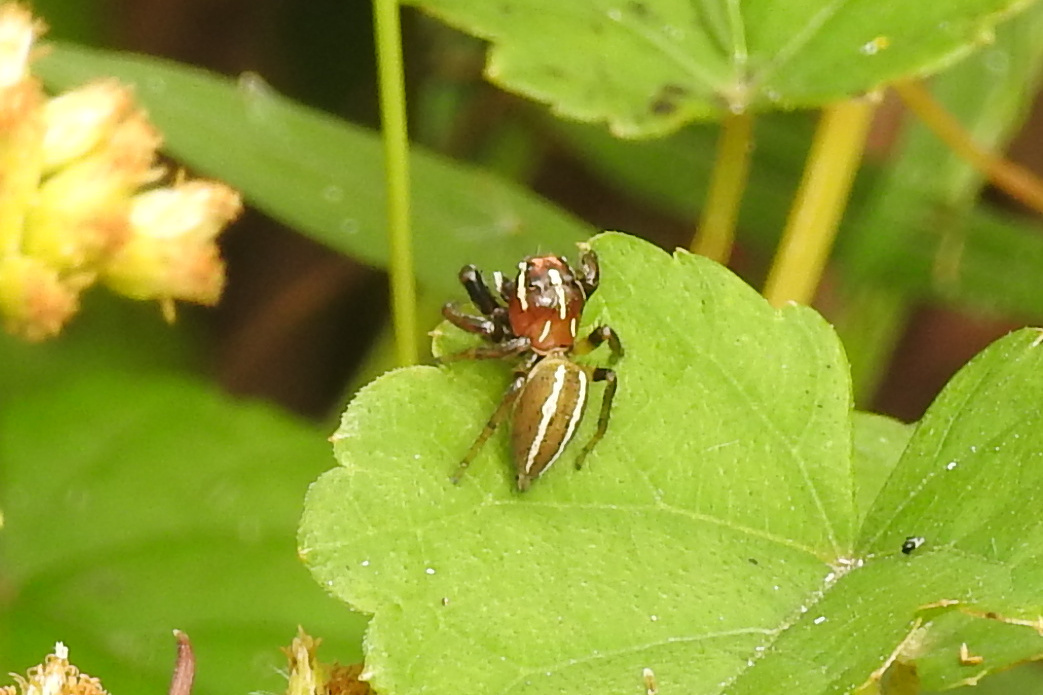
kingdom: Animalia
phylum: Arthropoda
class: Arachnida
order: Araneae
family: Salticidae
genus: Colonus
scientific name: Colonus puerperus
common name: Jumping spiders
